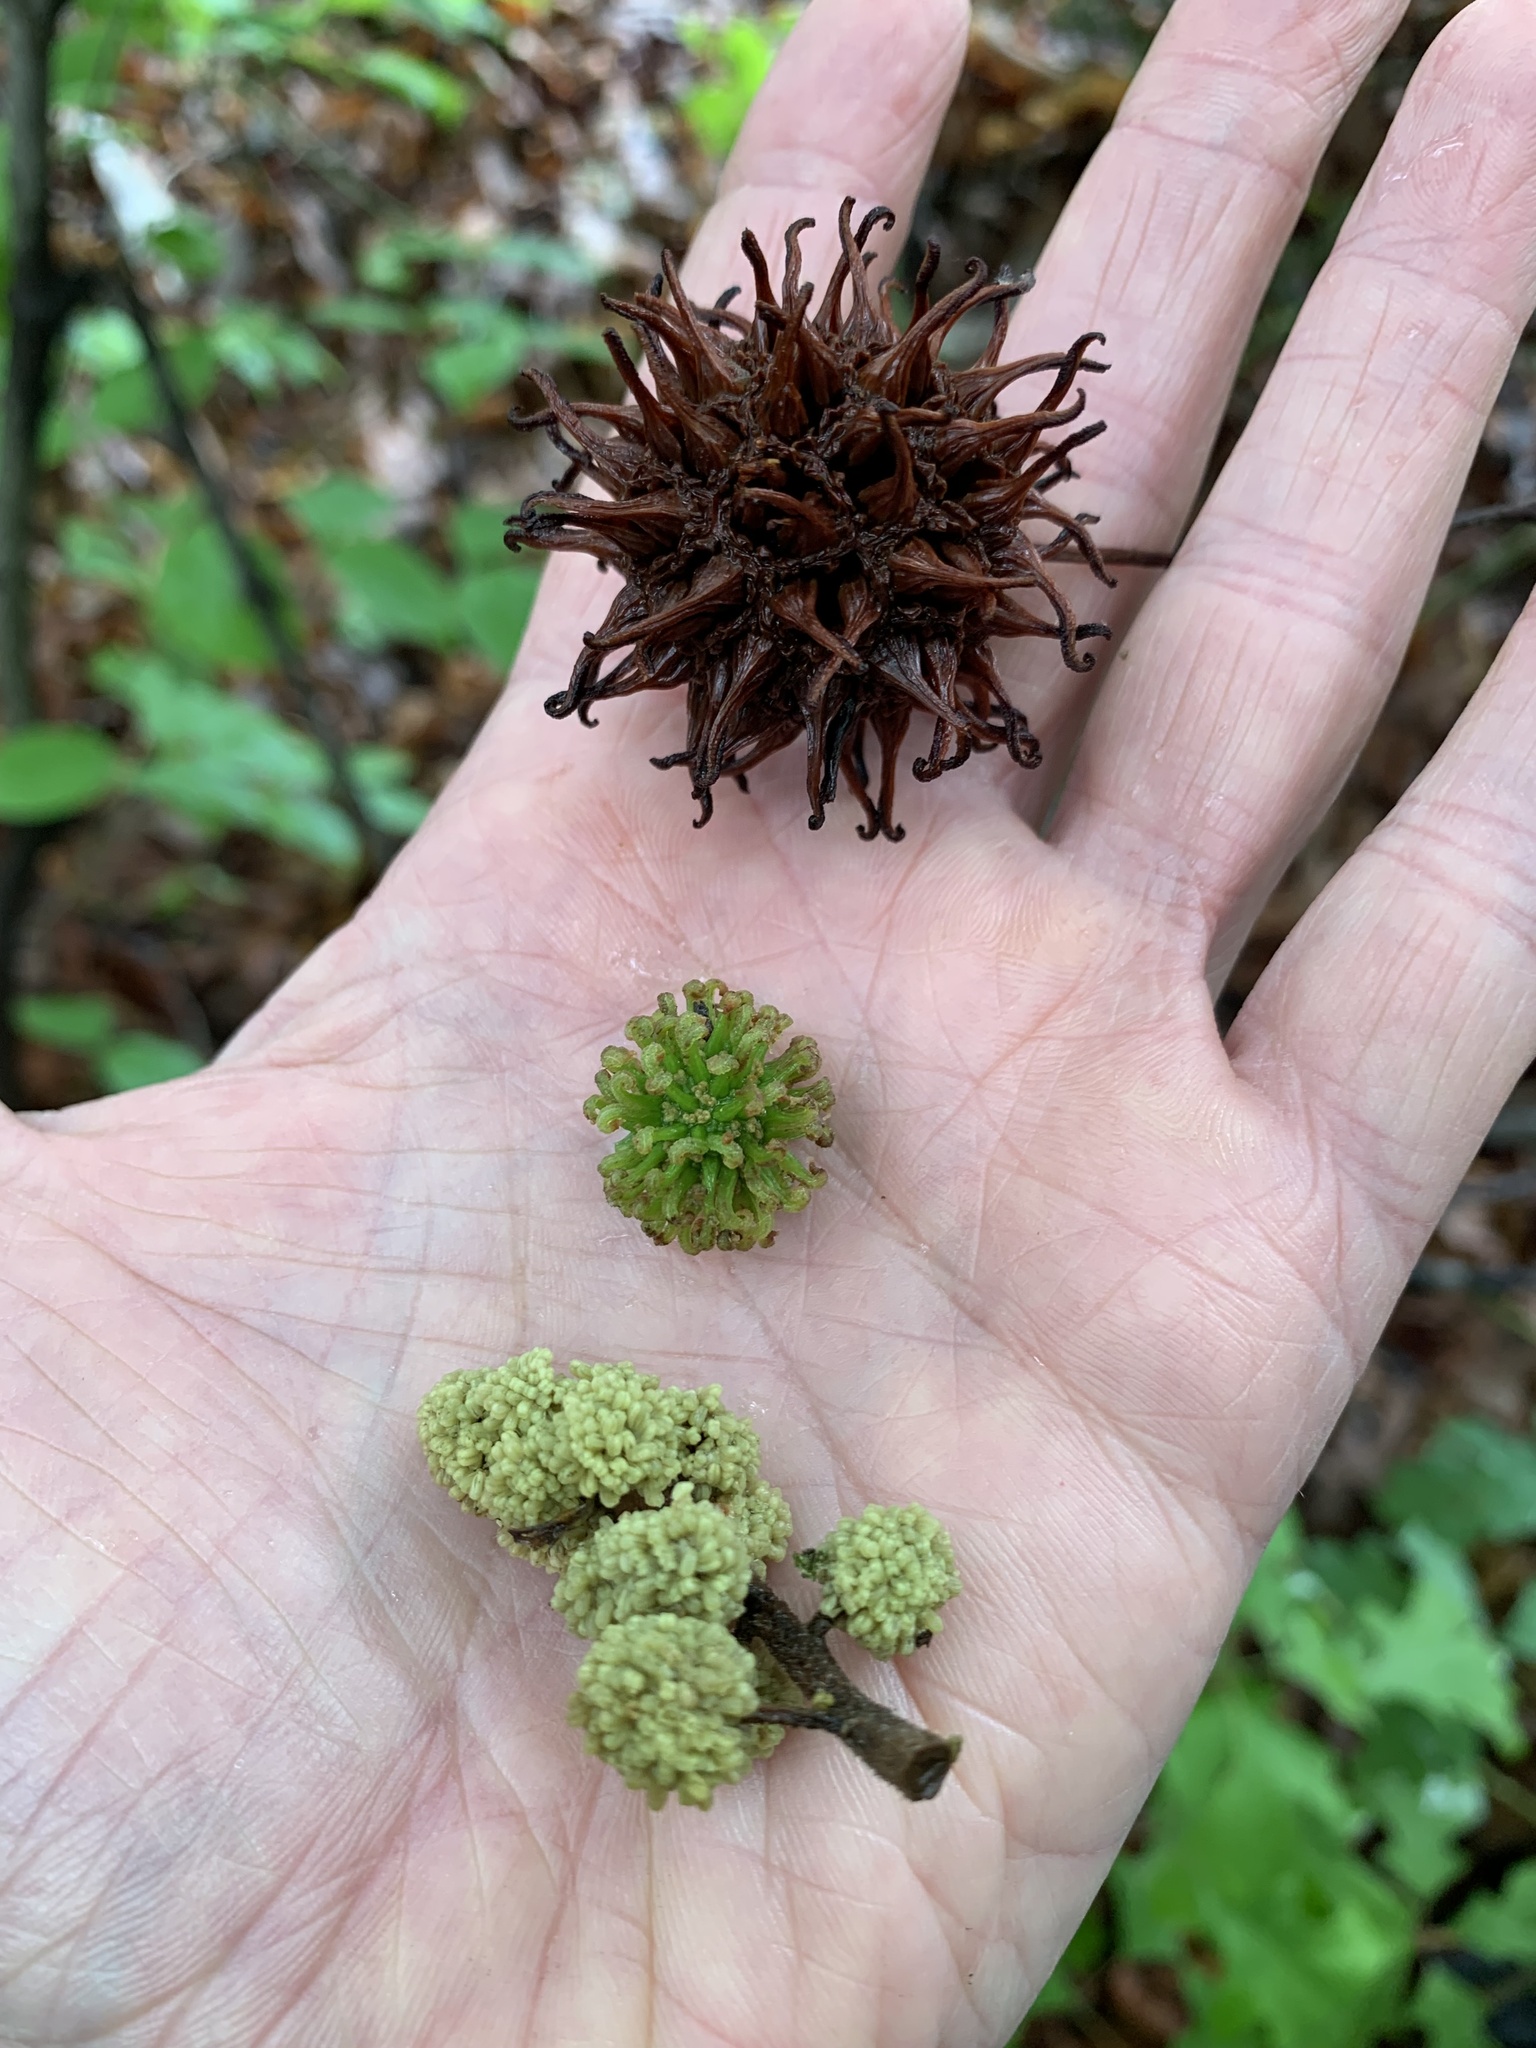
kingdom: Plantae
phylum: Tracheophyta
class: Magnoliopsida
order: Saxifragales
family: Altingiaceae
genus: Liquidambar
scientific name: Liquidambar styraciflua
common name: Sweet gum
